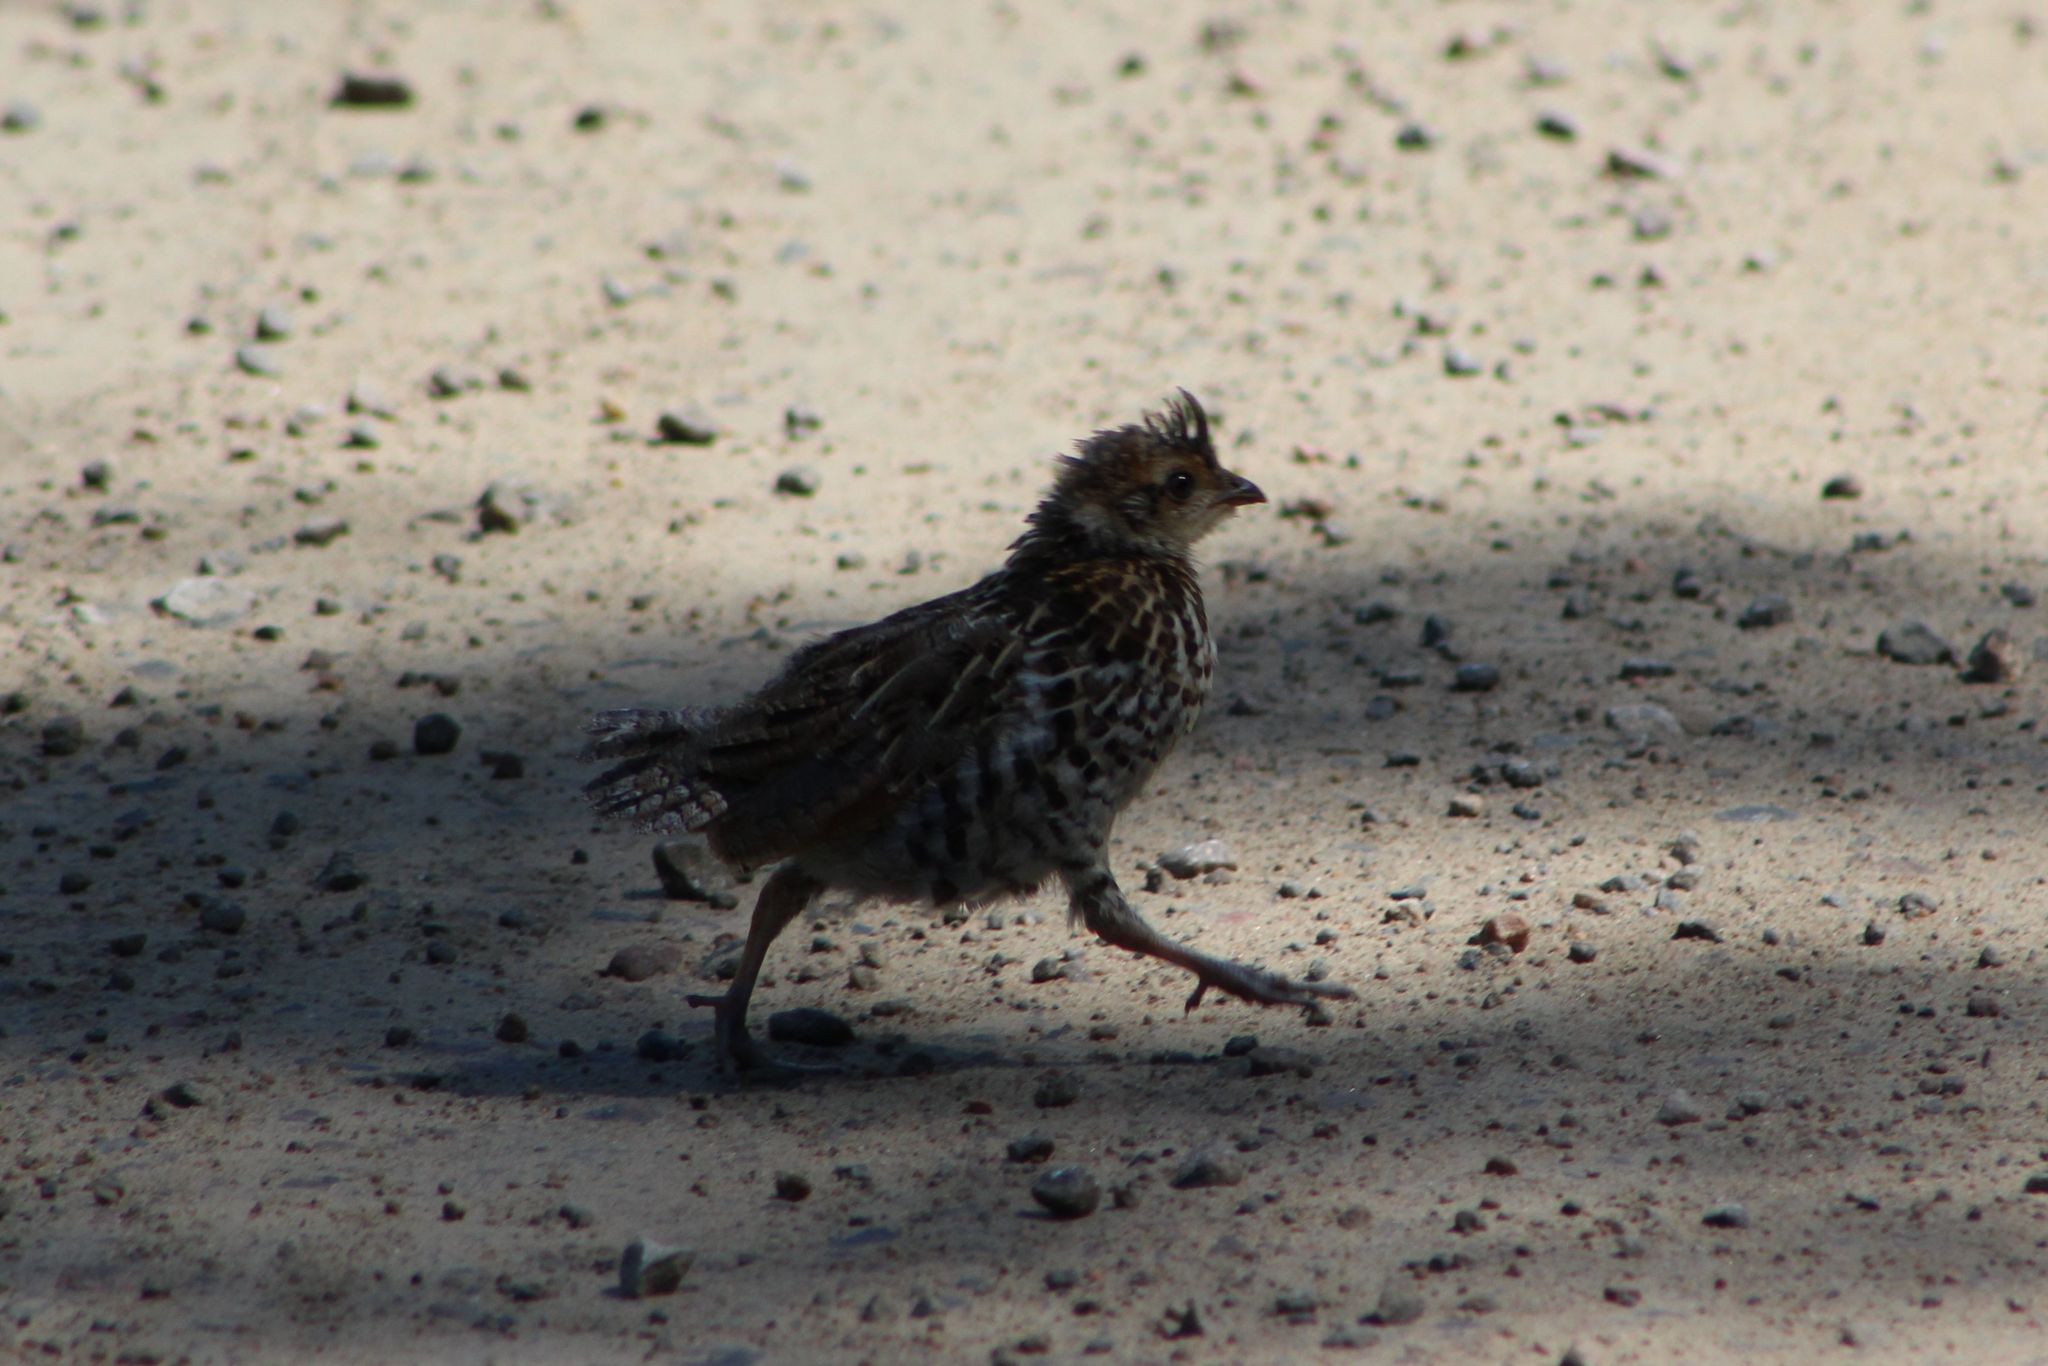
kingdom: Animalia
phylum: Chordata
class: Aves
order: Galliformes
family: Phasianidae
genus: Bonasa
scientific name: Bonasa umbellus
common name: Ruffed grouse
